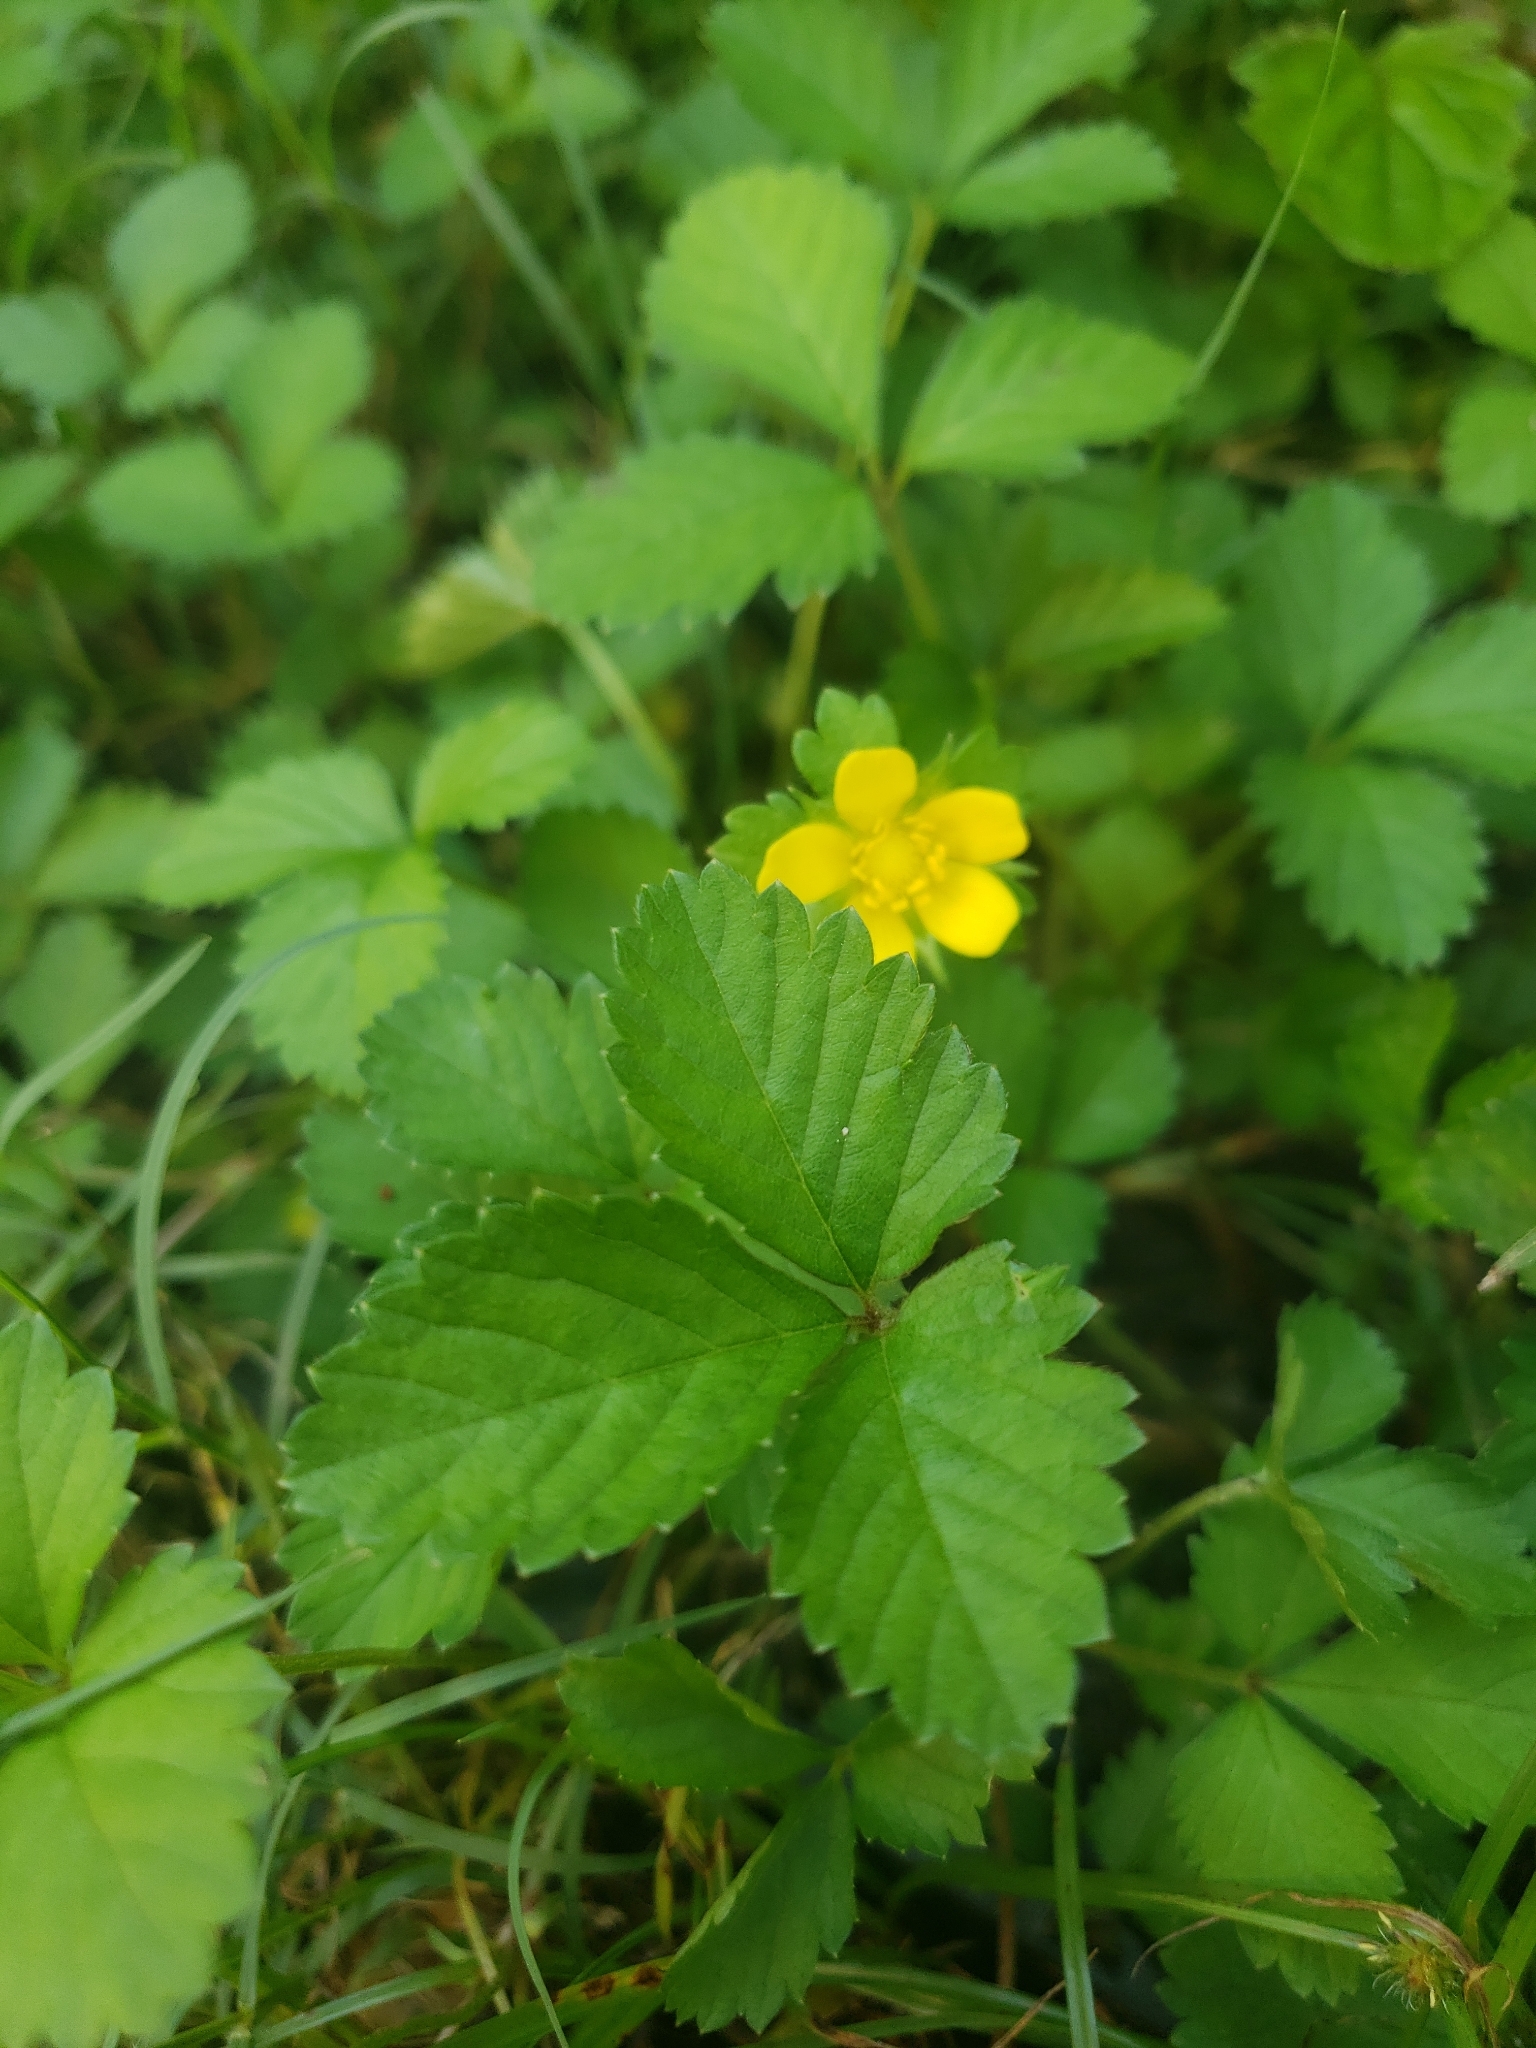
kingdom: Plantae
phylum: Tracheophyta
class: Magnoliopsida
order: Rosales
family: Rosaceae
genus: Potentilla
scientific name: Potentilla indica
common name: Yellow-flowered strawberry
